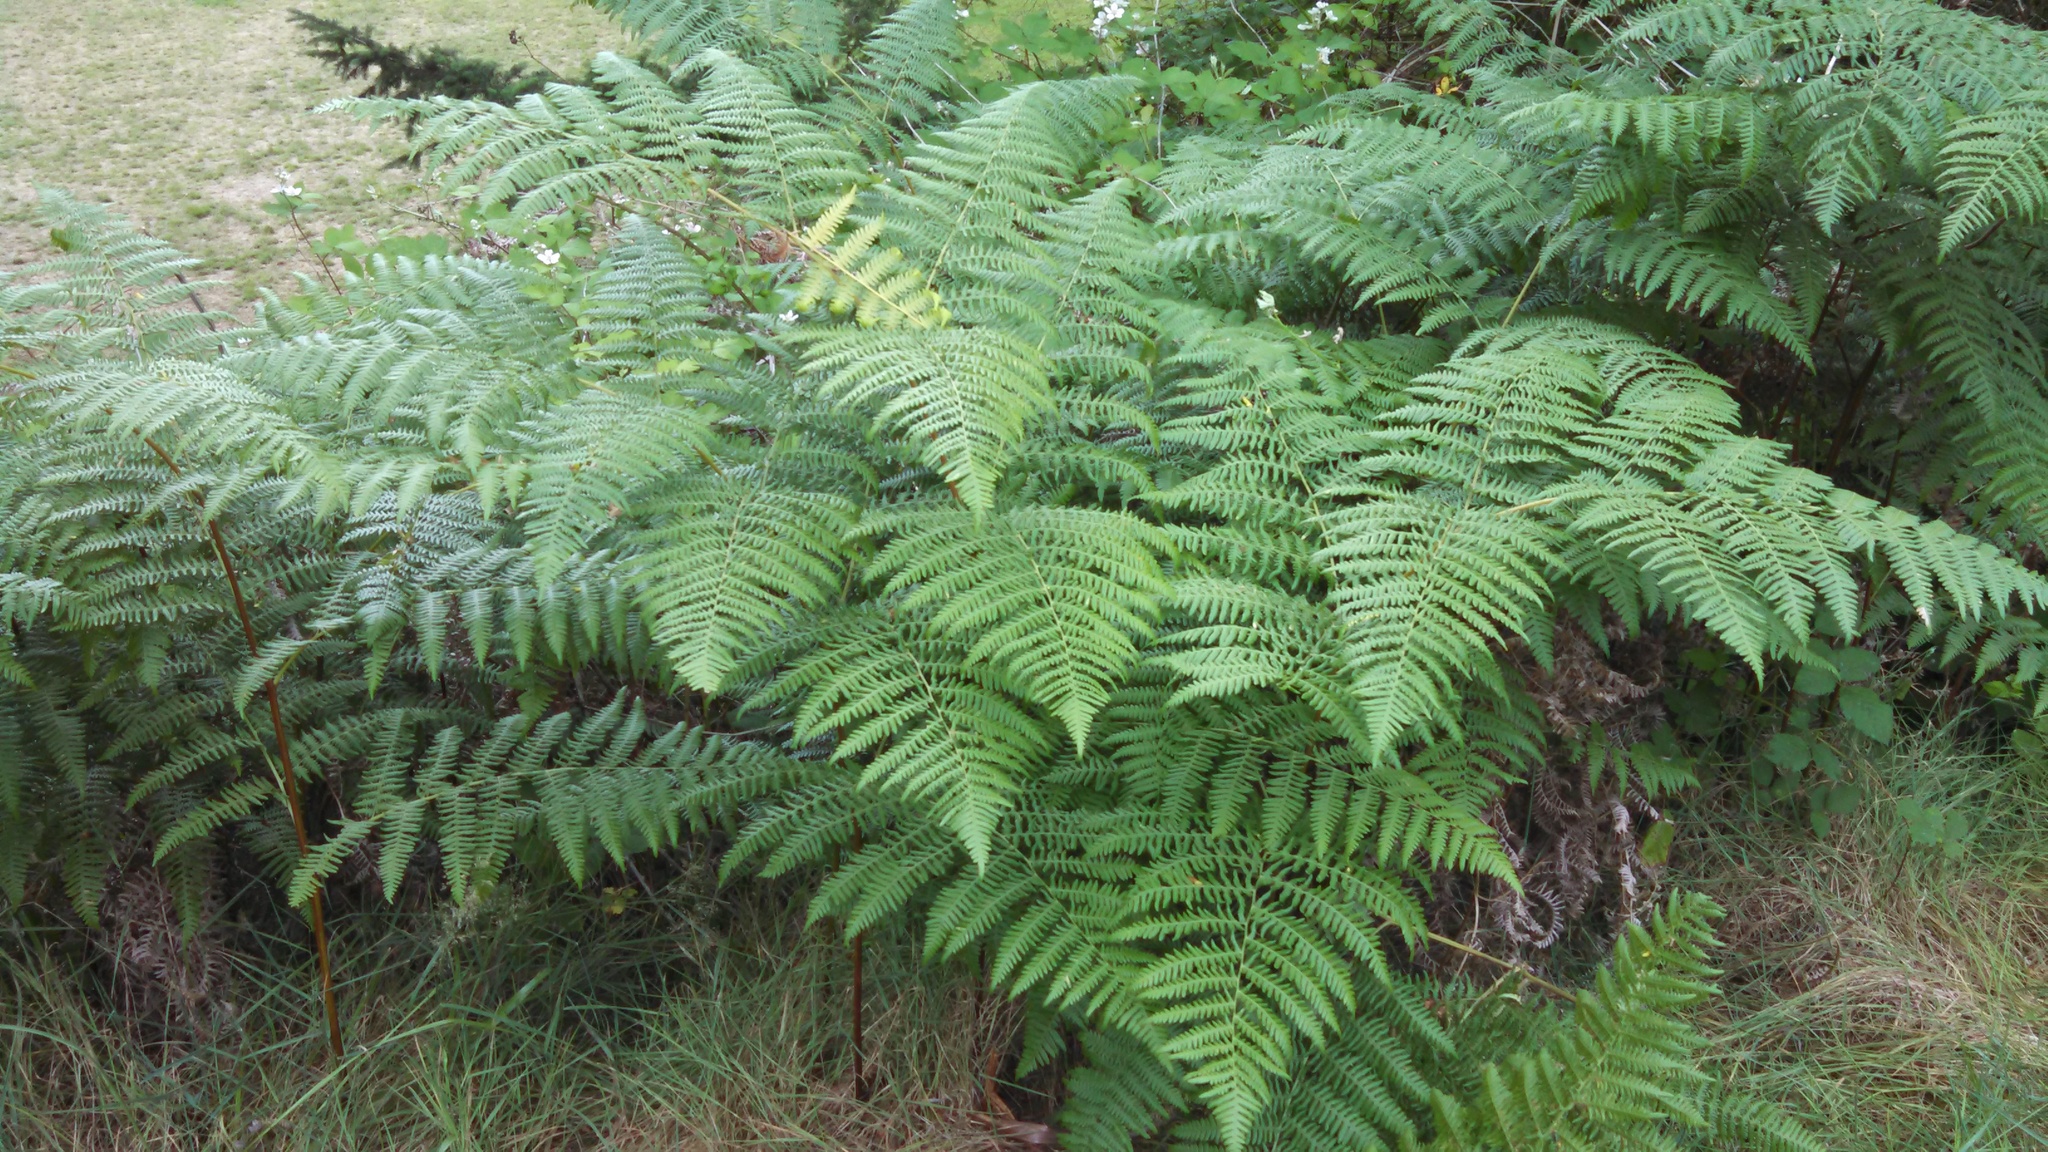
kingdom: Plantae
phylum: Tracheophyta
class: Polypodiopsida
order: Polypodiales
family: Dennstaedtiaceae
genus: Pteridium
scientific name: Pteridium aquilinum
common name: Bracken
